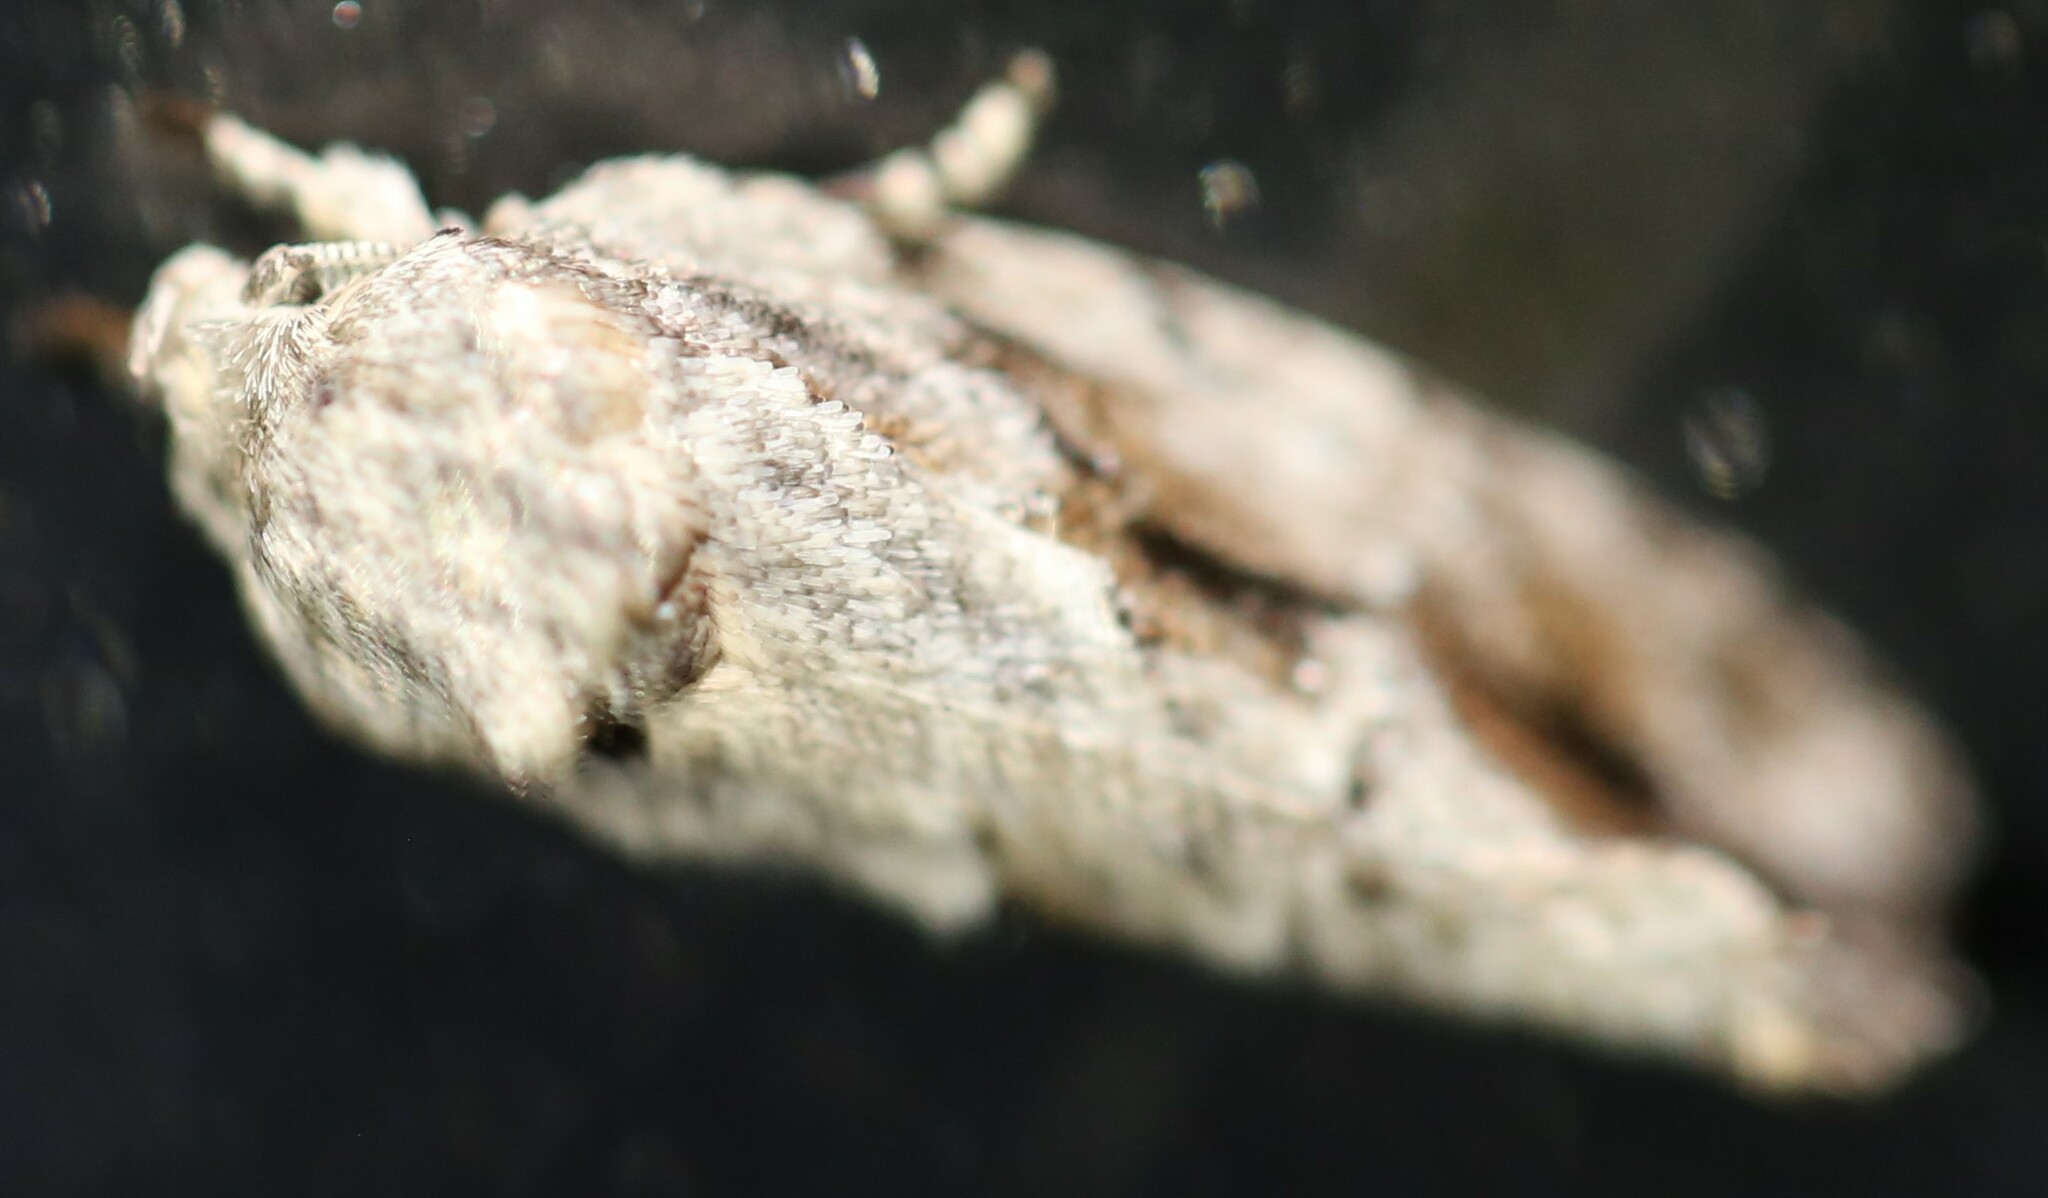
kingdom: Animalia
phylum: Arthropoda
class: Insecta
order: Lepidoptera
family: Depressariidae
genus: Agriophara
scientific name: Agriophara confertella
